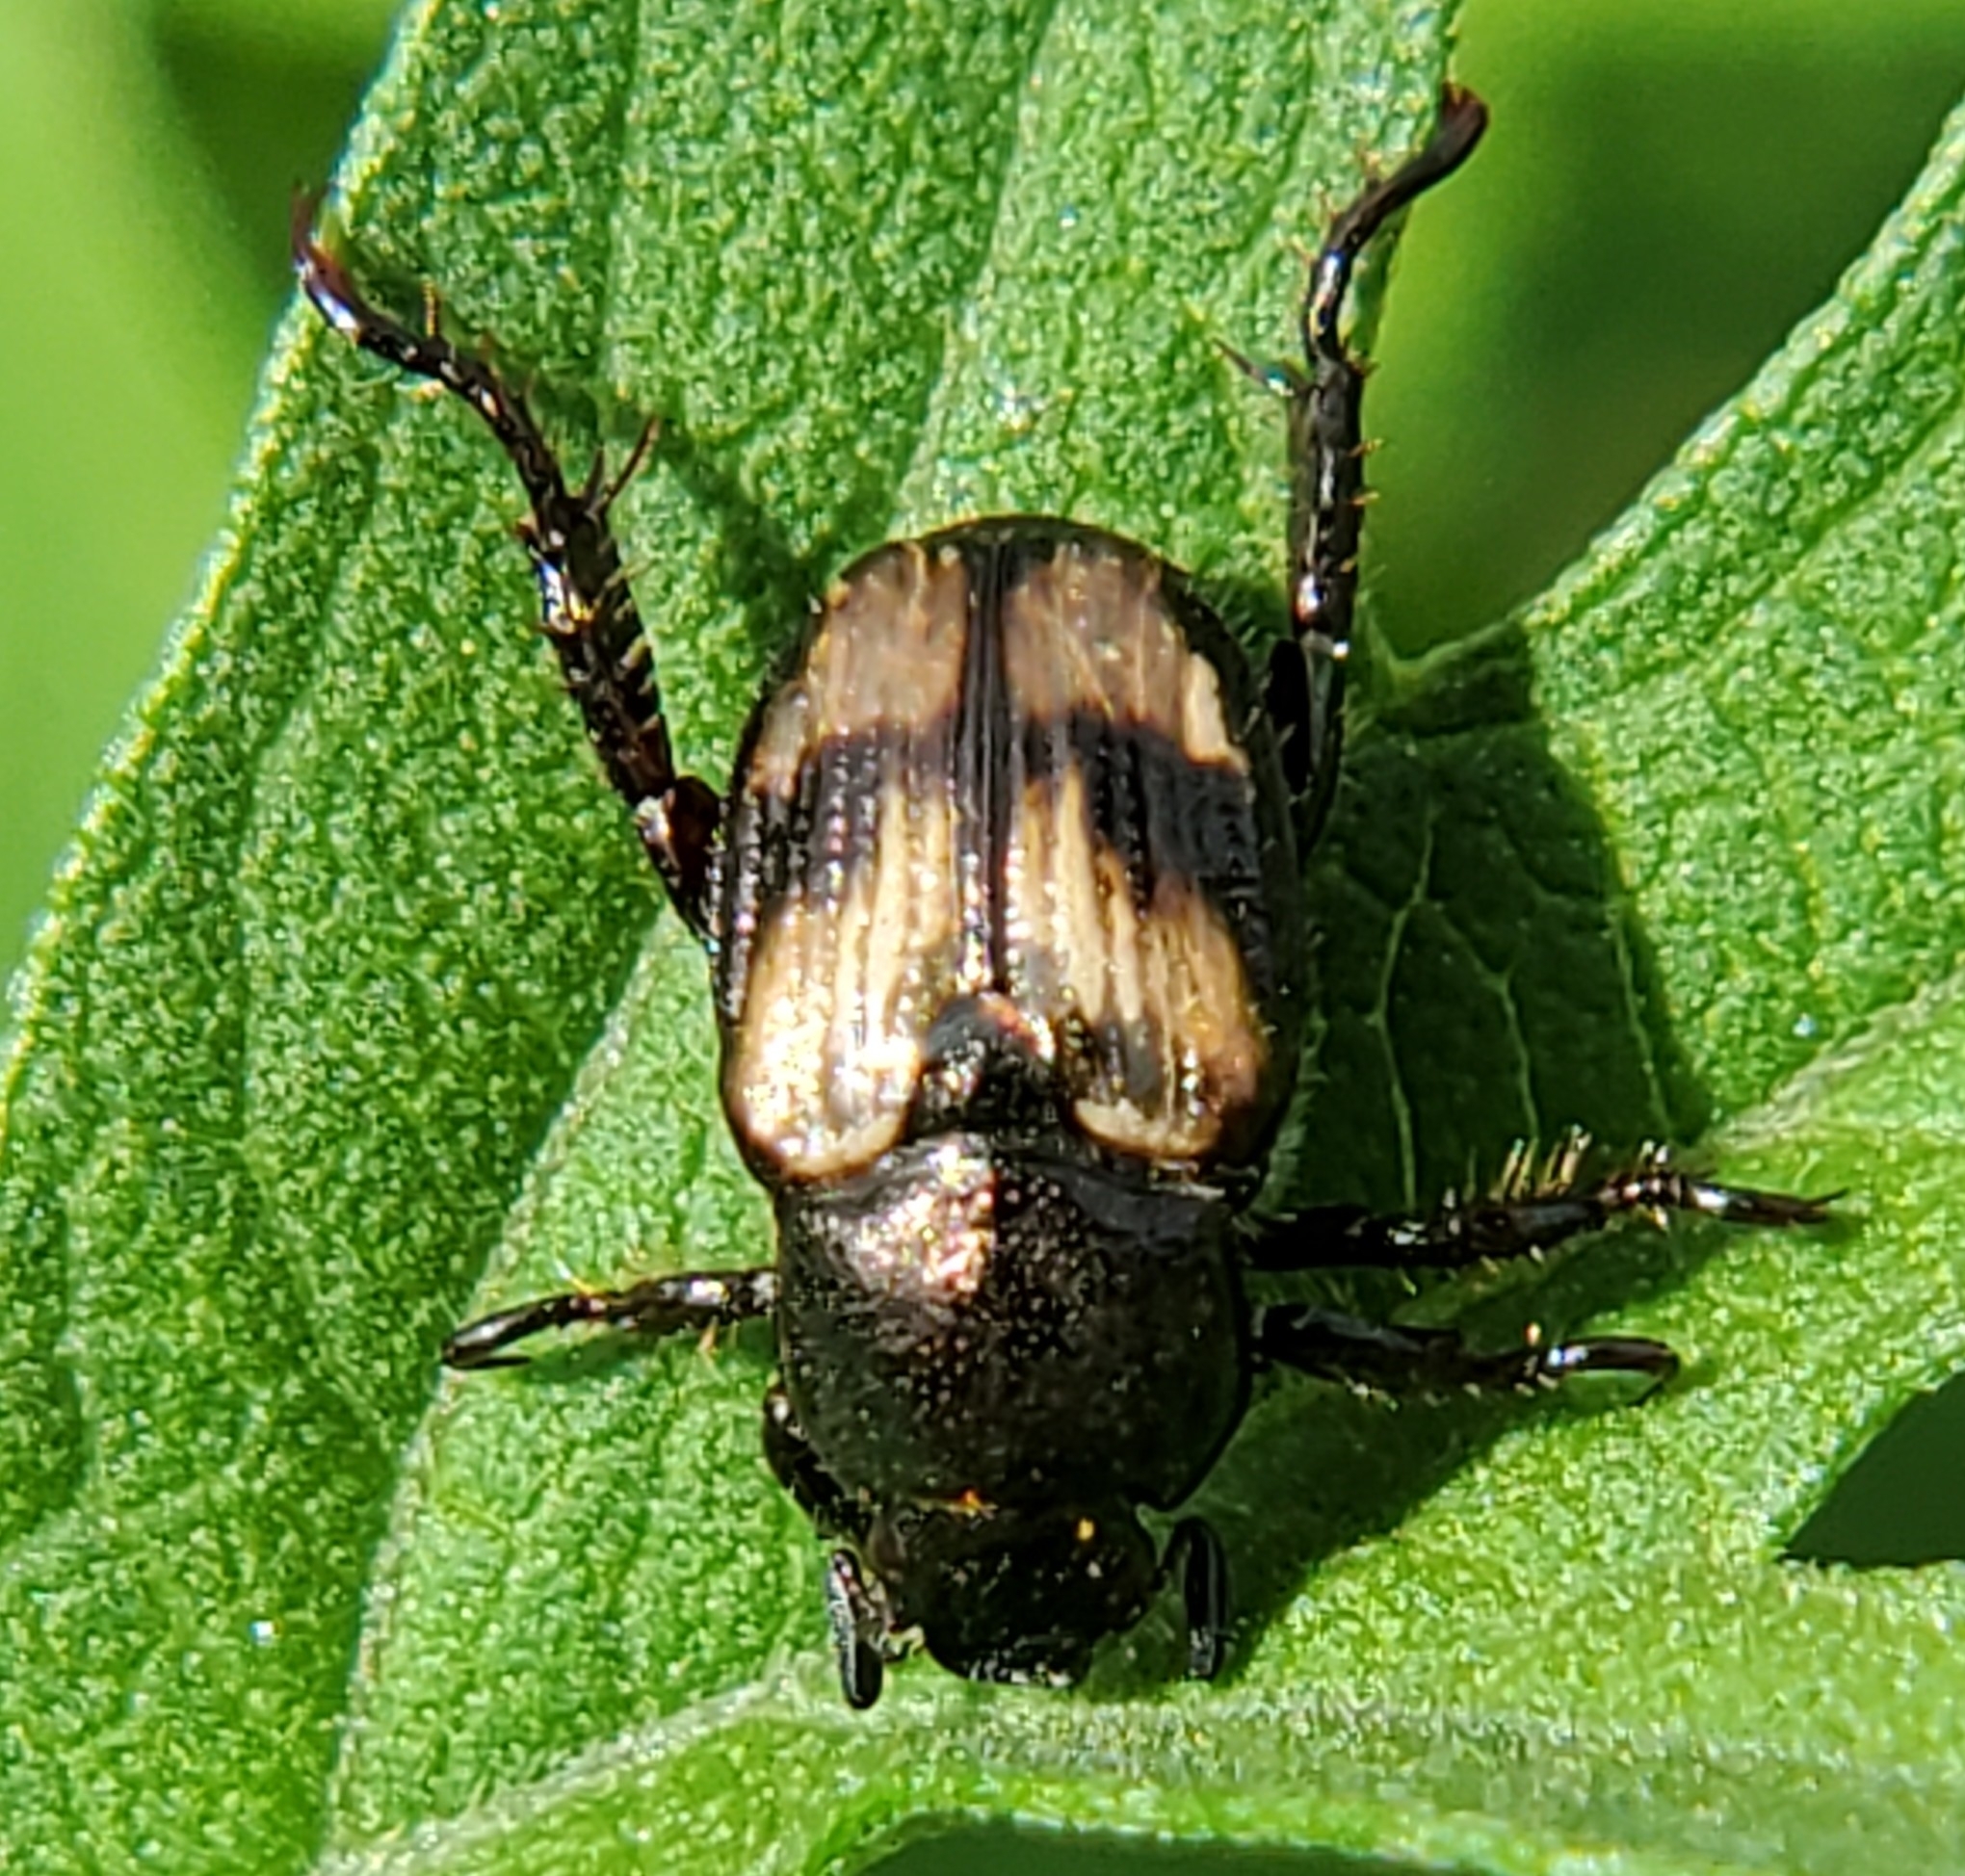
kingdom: Animalia
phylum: Arthropoda
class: Insecta
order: Coleoptera
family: Scarabaeidae
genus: Strigoderma
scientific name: Strigoderma pygmaea
